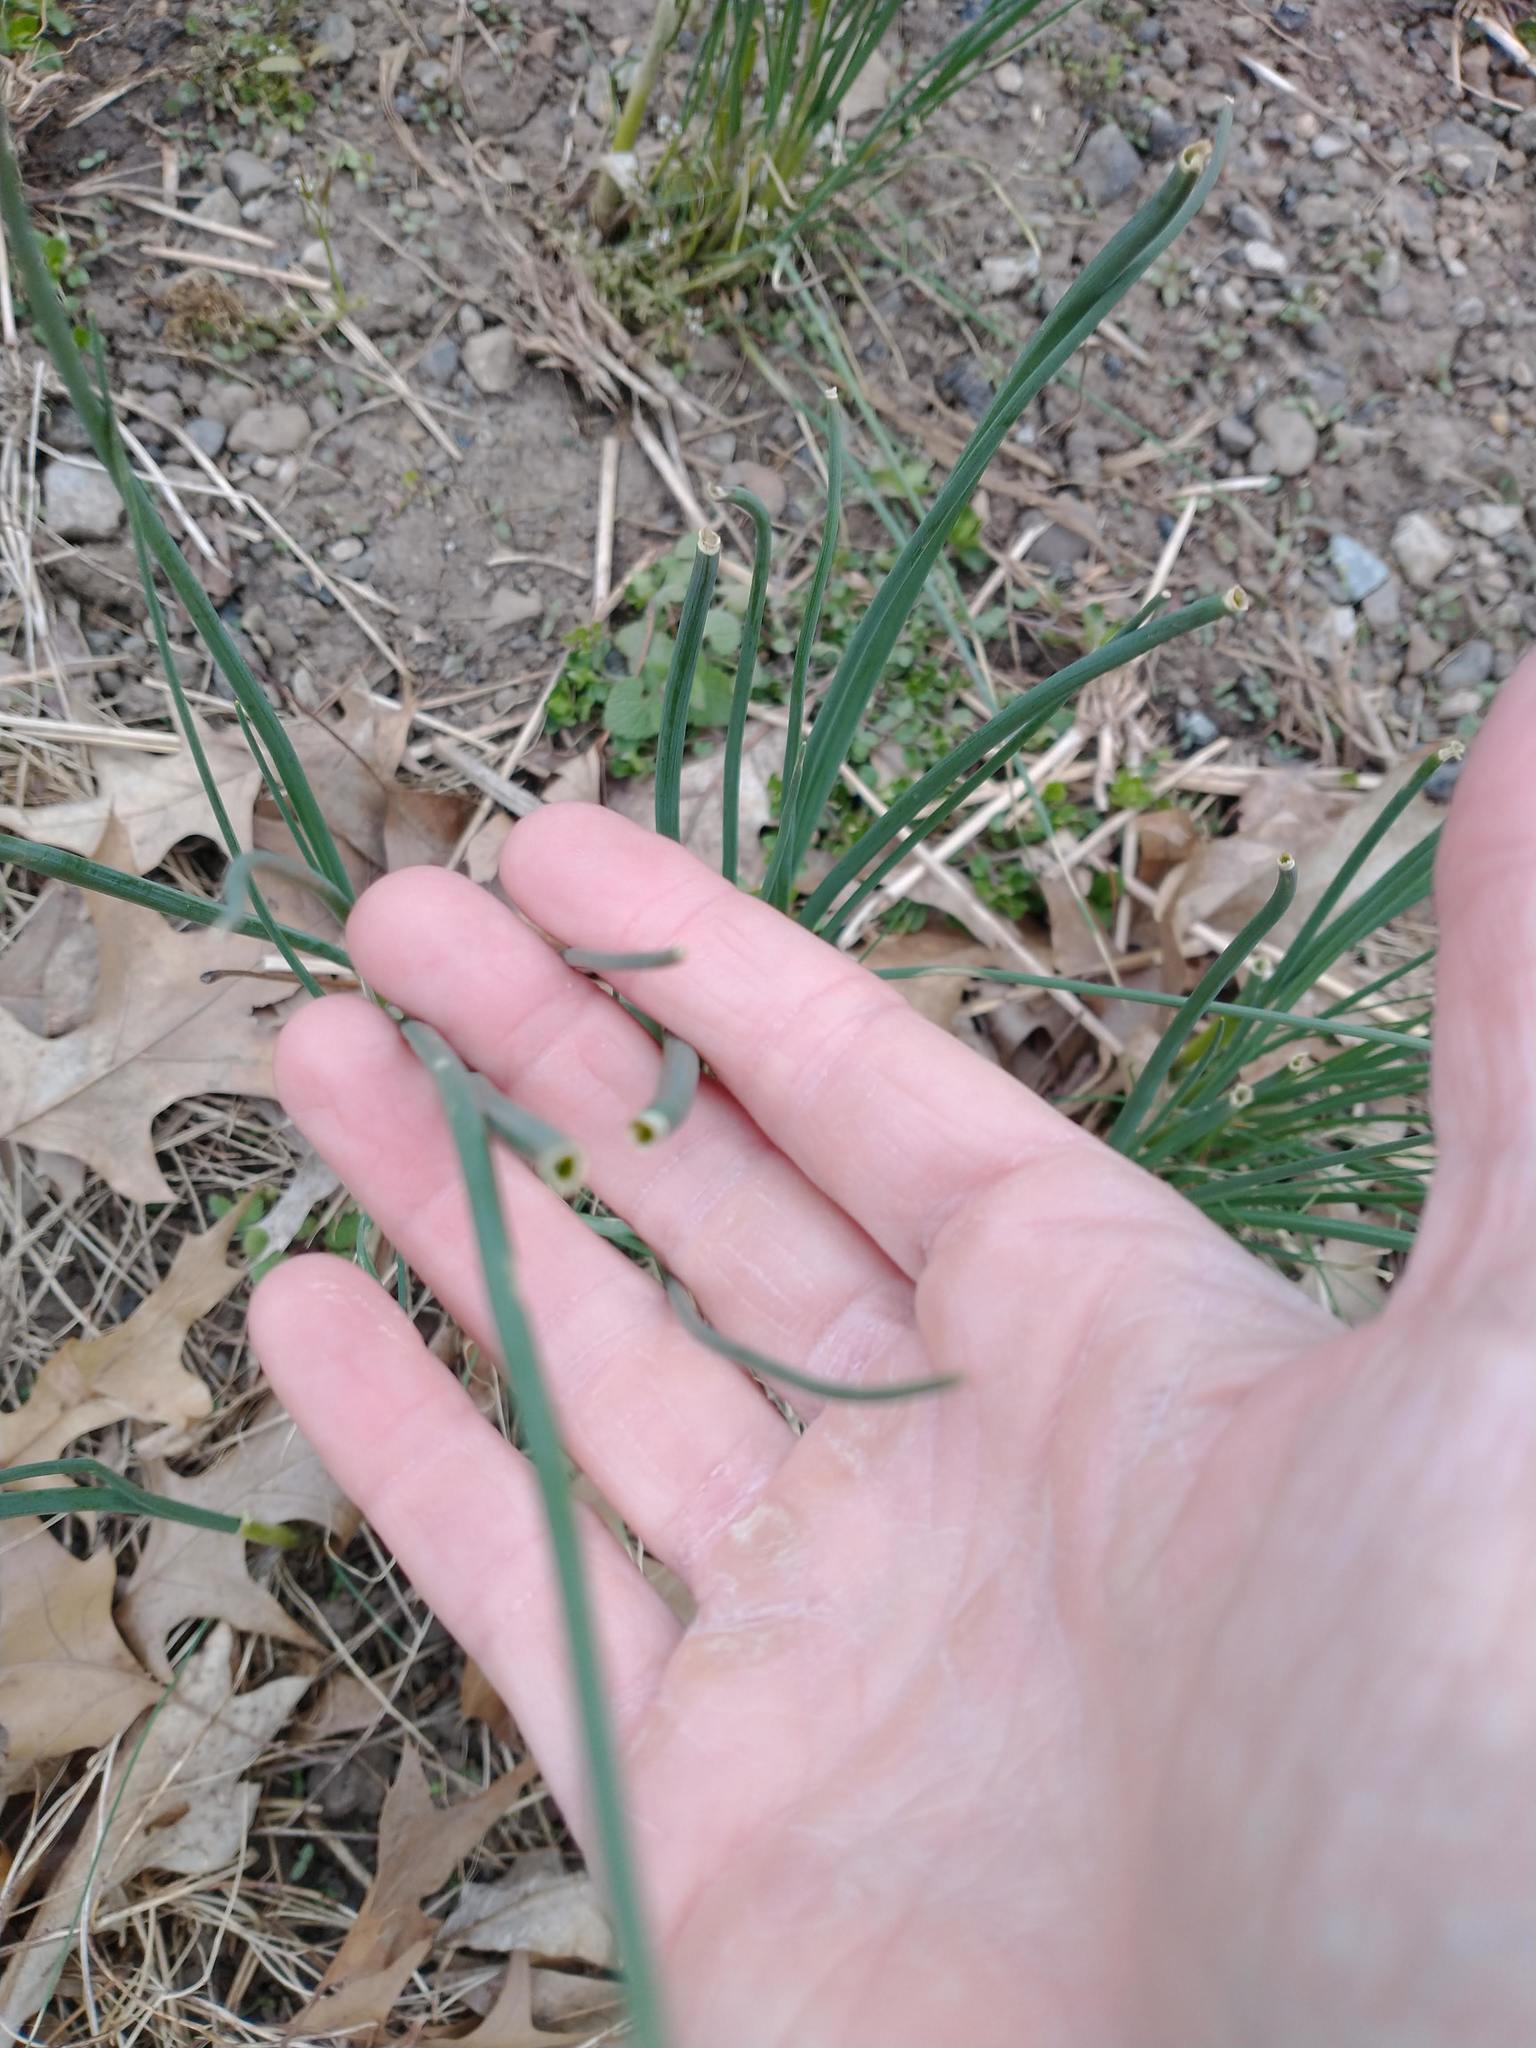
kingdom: Plantae
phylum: Tracheophyta
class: Liliopsida
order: Asparagales
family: Amaryllidaceae
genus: Allium
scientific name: Allium vineale
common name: Crow garlic
